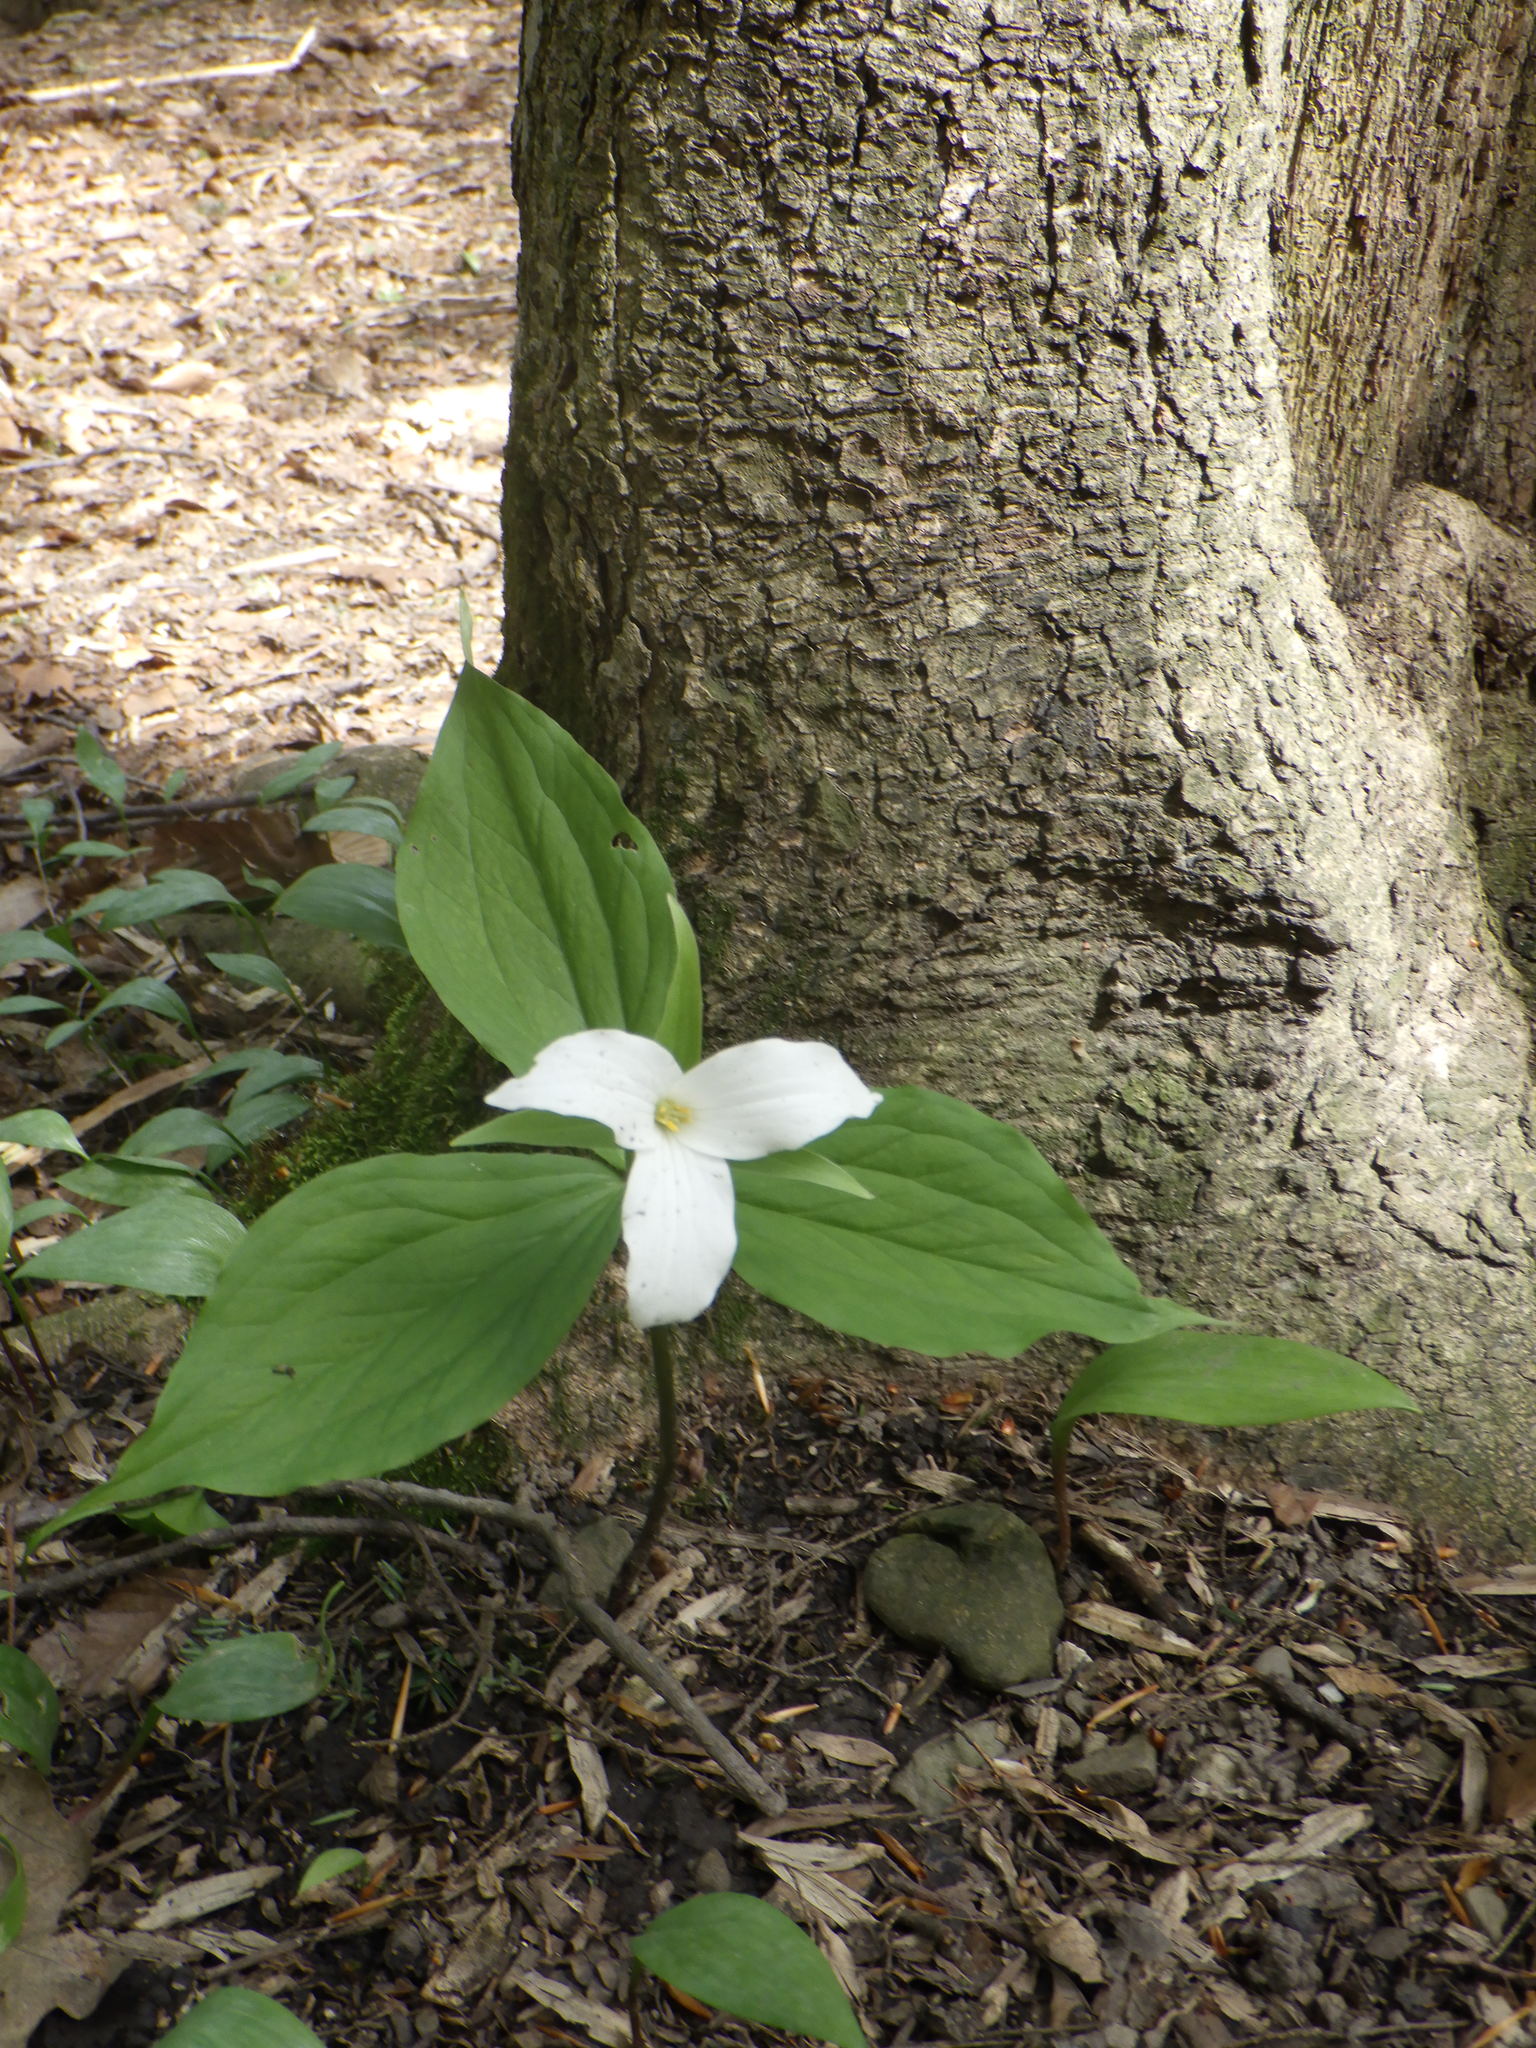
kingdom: Plantae
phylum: Tracheophyta
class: Liliopsida
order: Liliales
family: Melanthiaceae
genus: Trillium
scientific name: Trillium grandiflorum
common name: Great white trillium
